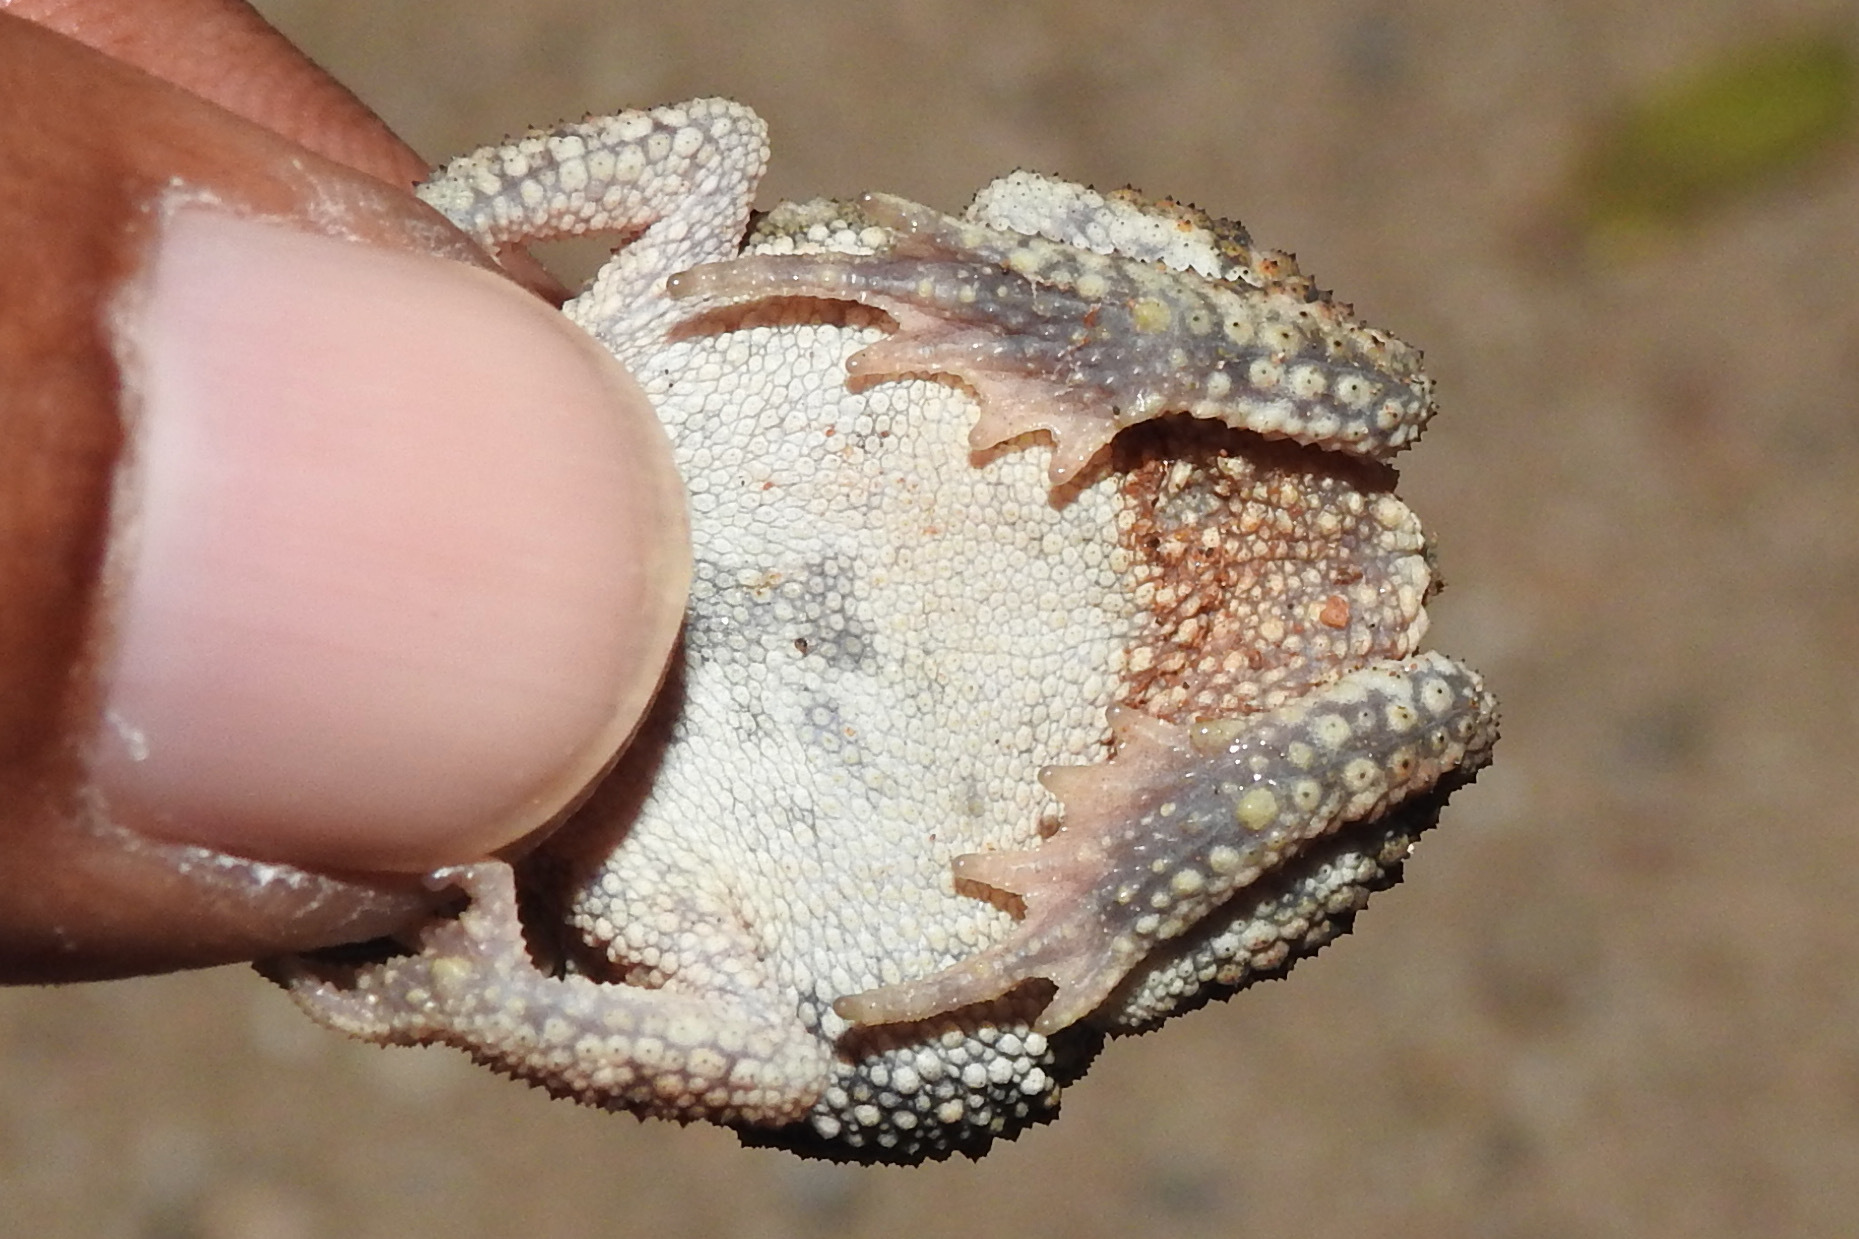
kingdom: Animalia
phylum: Chordata
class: Amphibia
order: Anura
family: Bufonidae
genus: Duttaphrynus
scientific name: Duttaphrynus scaber
